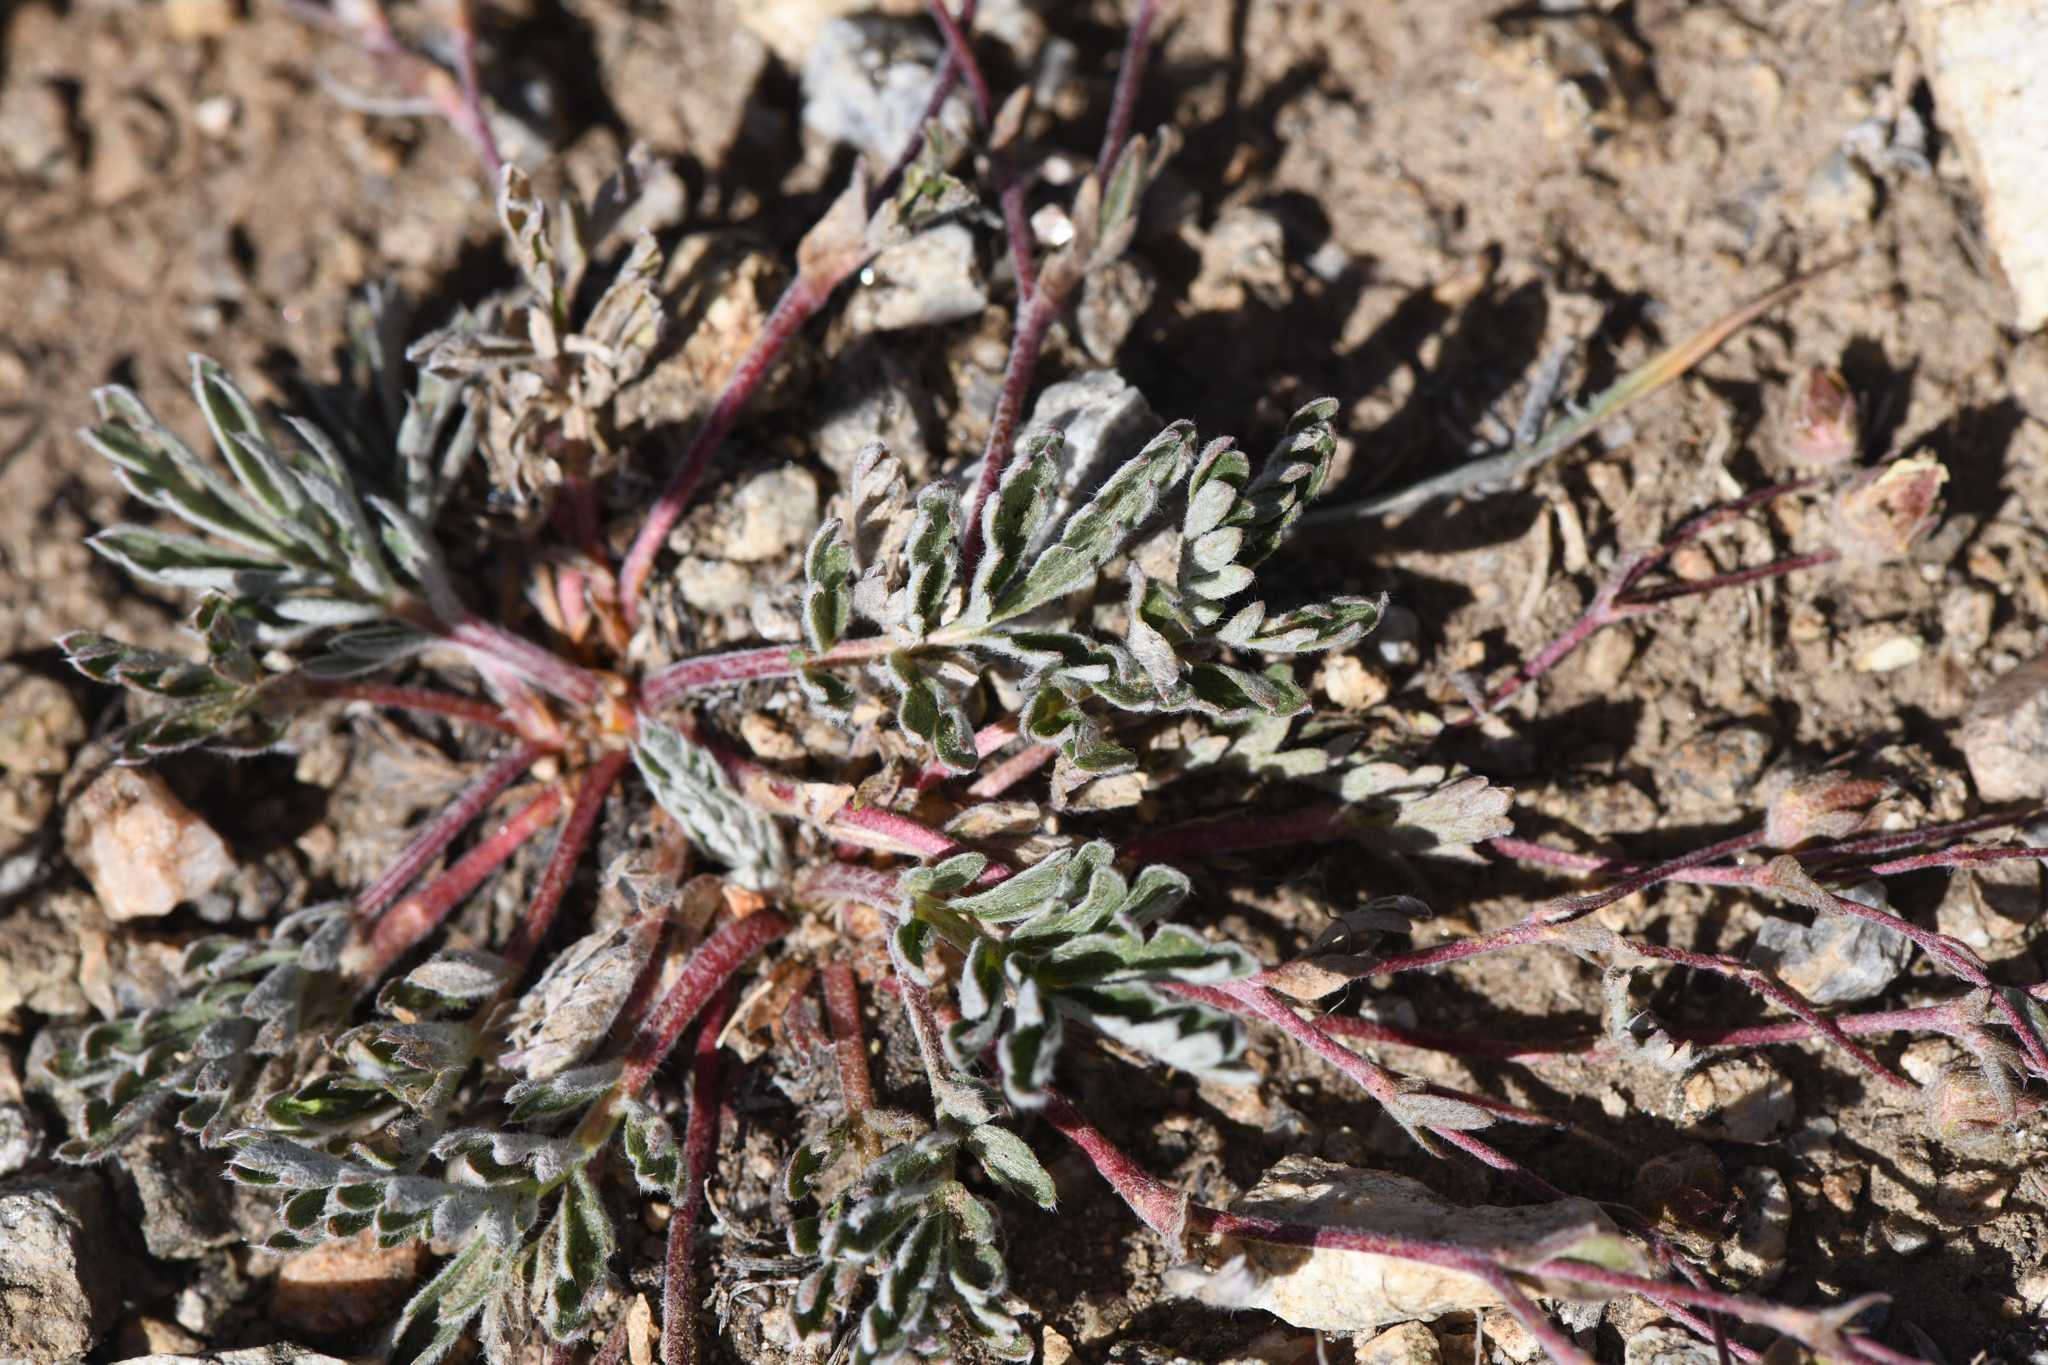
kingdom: Plantae
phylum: Tracheophyta
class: Magnoliopsida
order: Rosales
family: Rosaceae
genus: Potentilla
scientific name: Potentilla morefieldii
